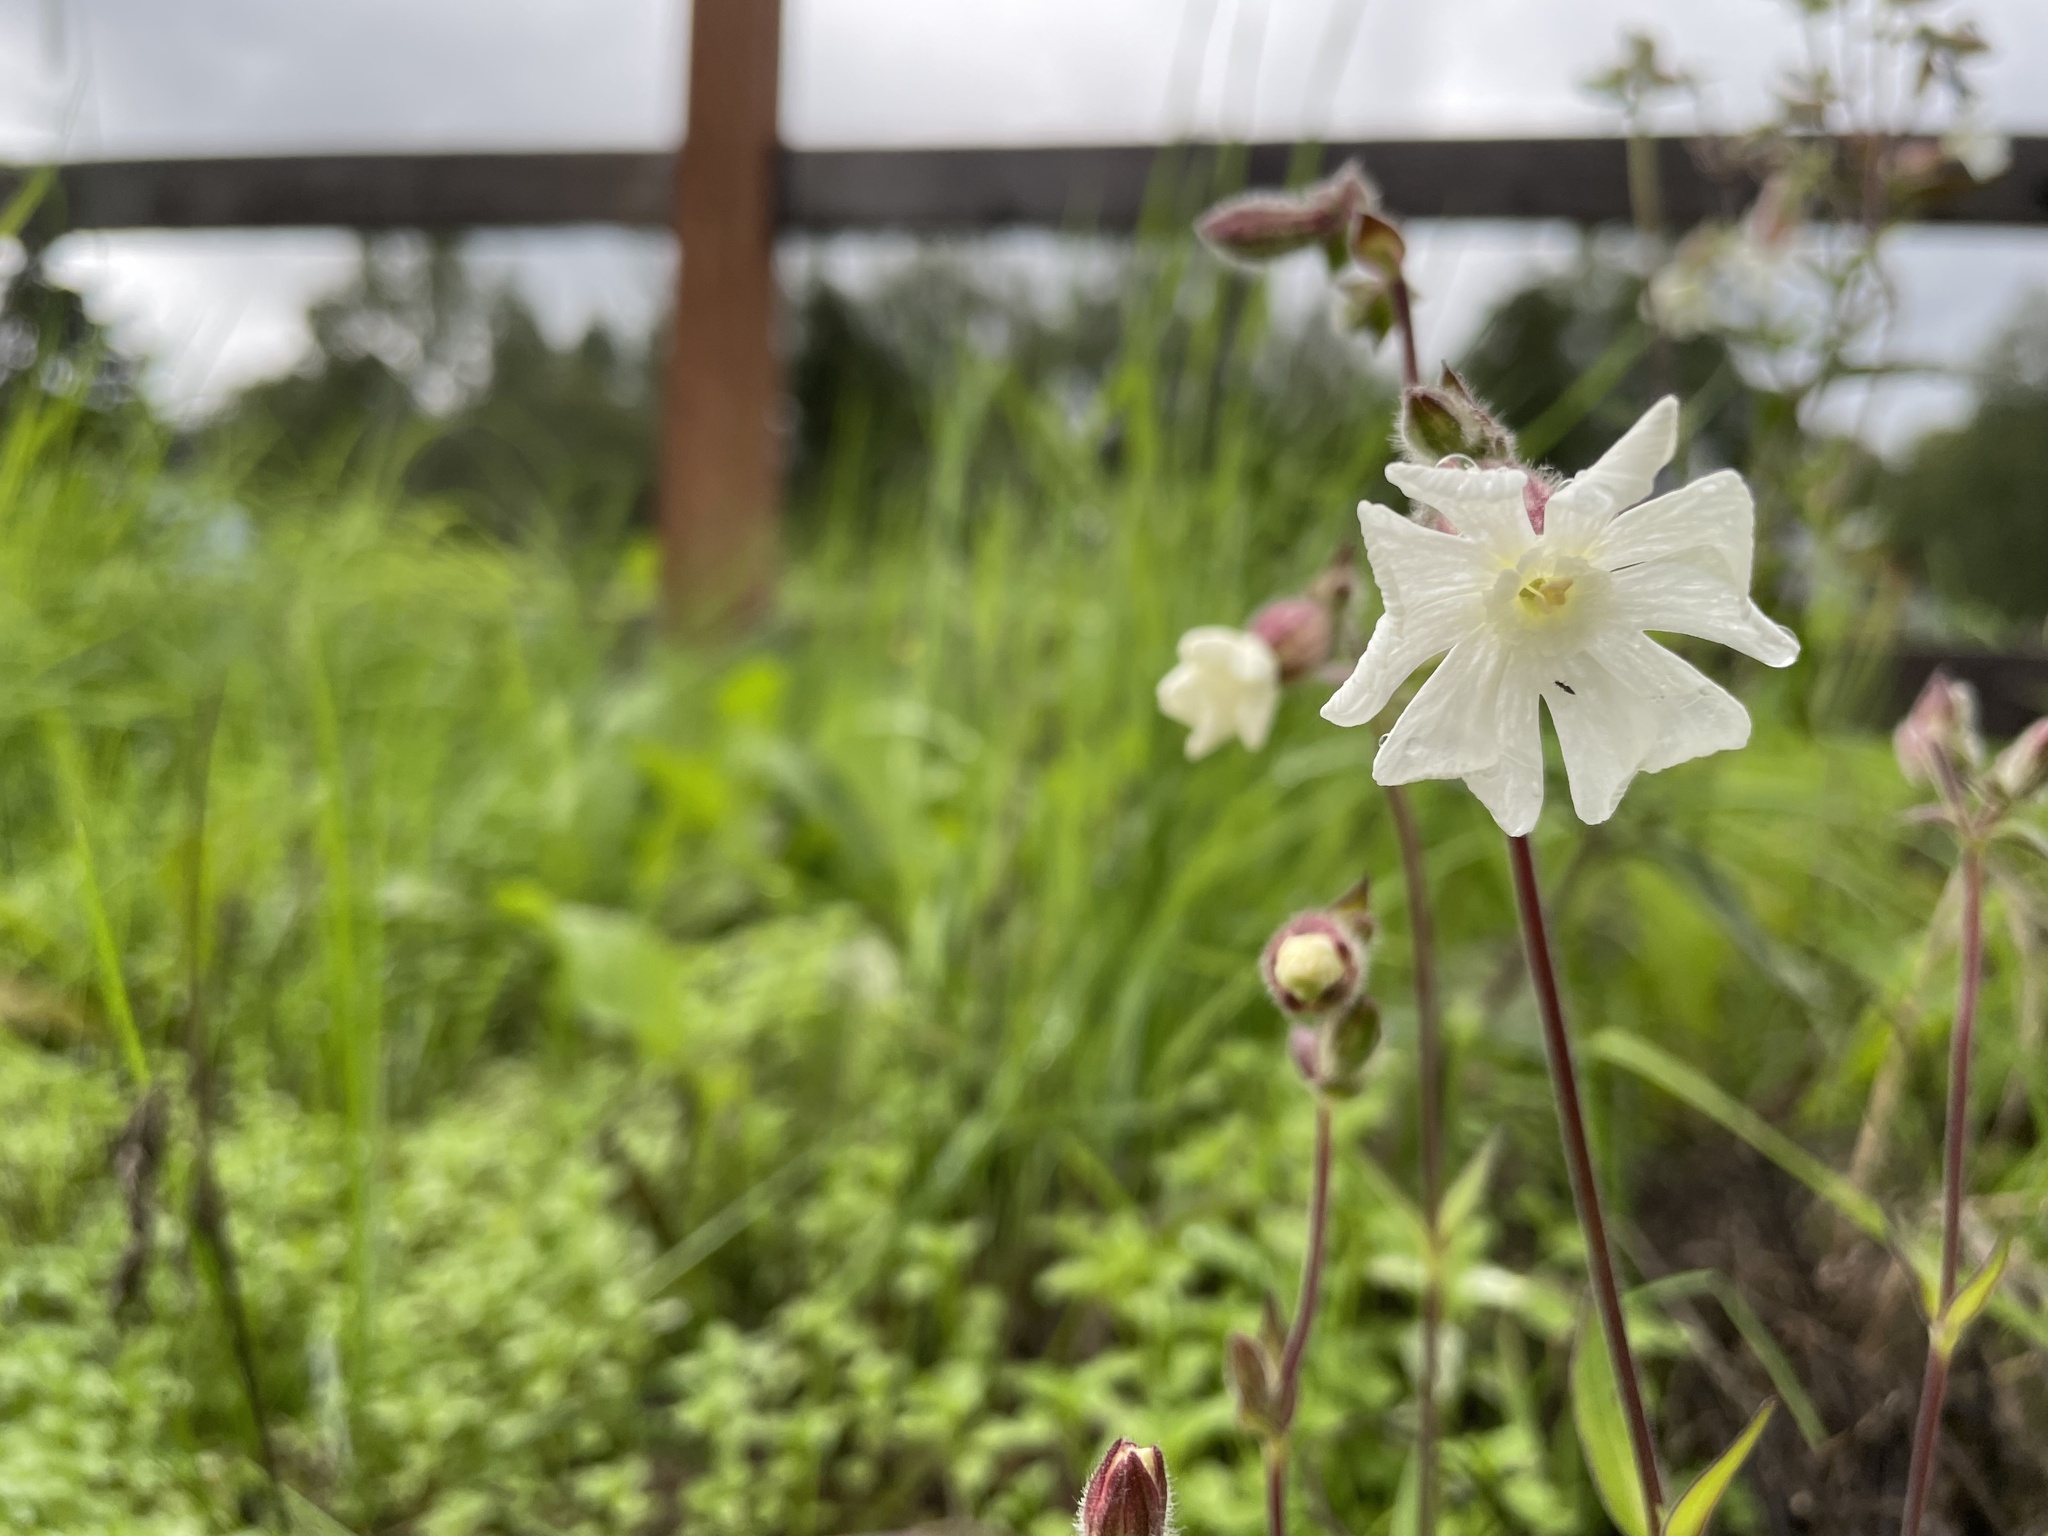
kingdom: Plantae
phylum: Tracheophyta
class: Magnoliopsida
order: Caryophyllales
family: Caryophyllaceae
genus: Silene
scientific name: Silene latifolia
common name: White campion
